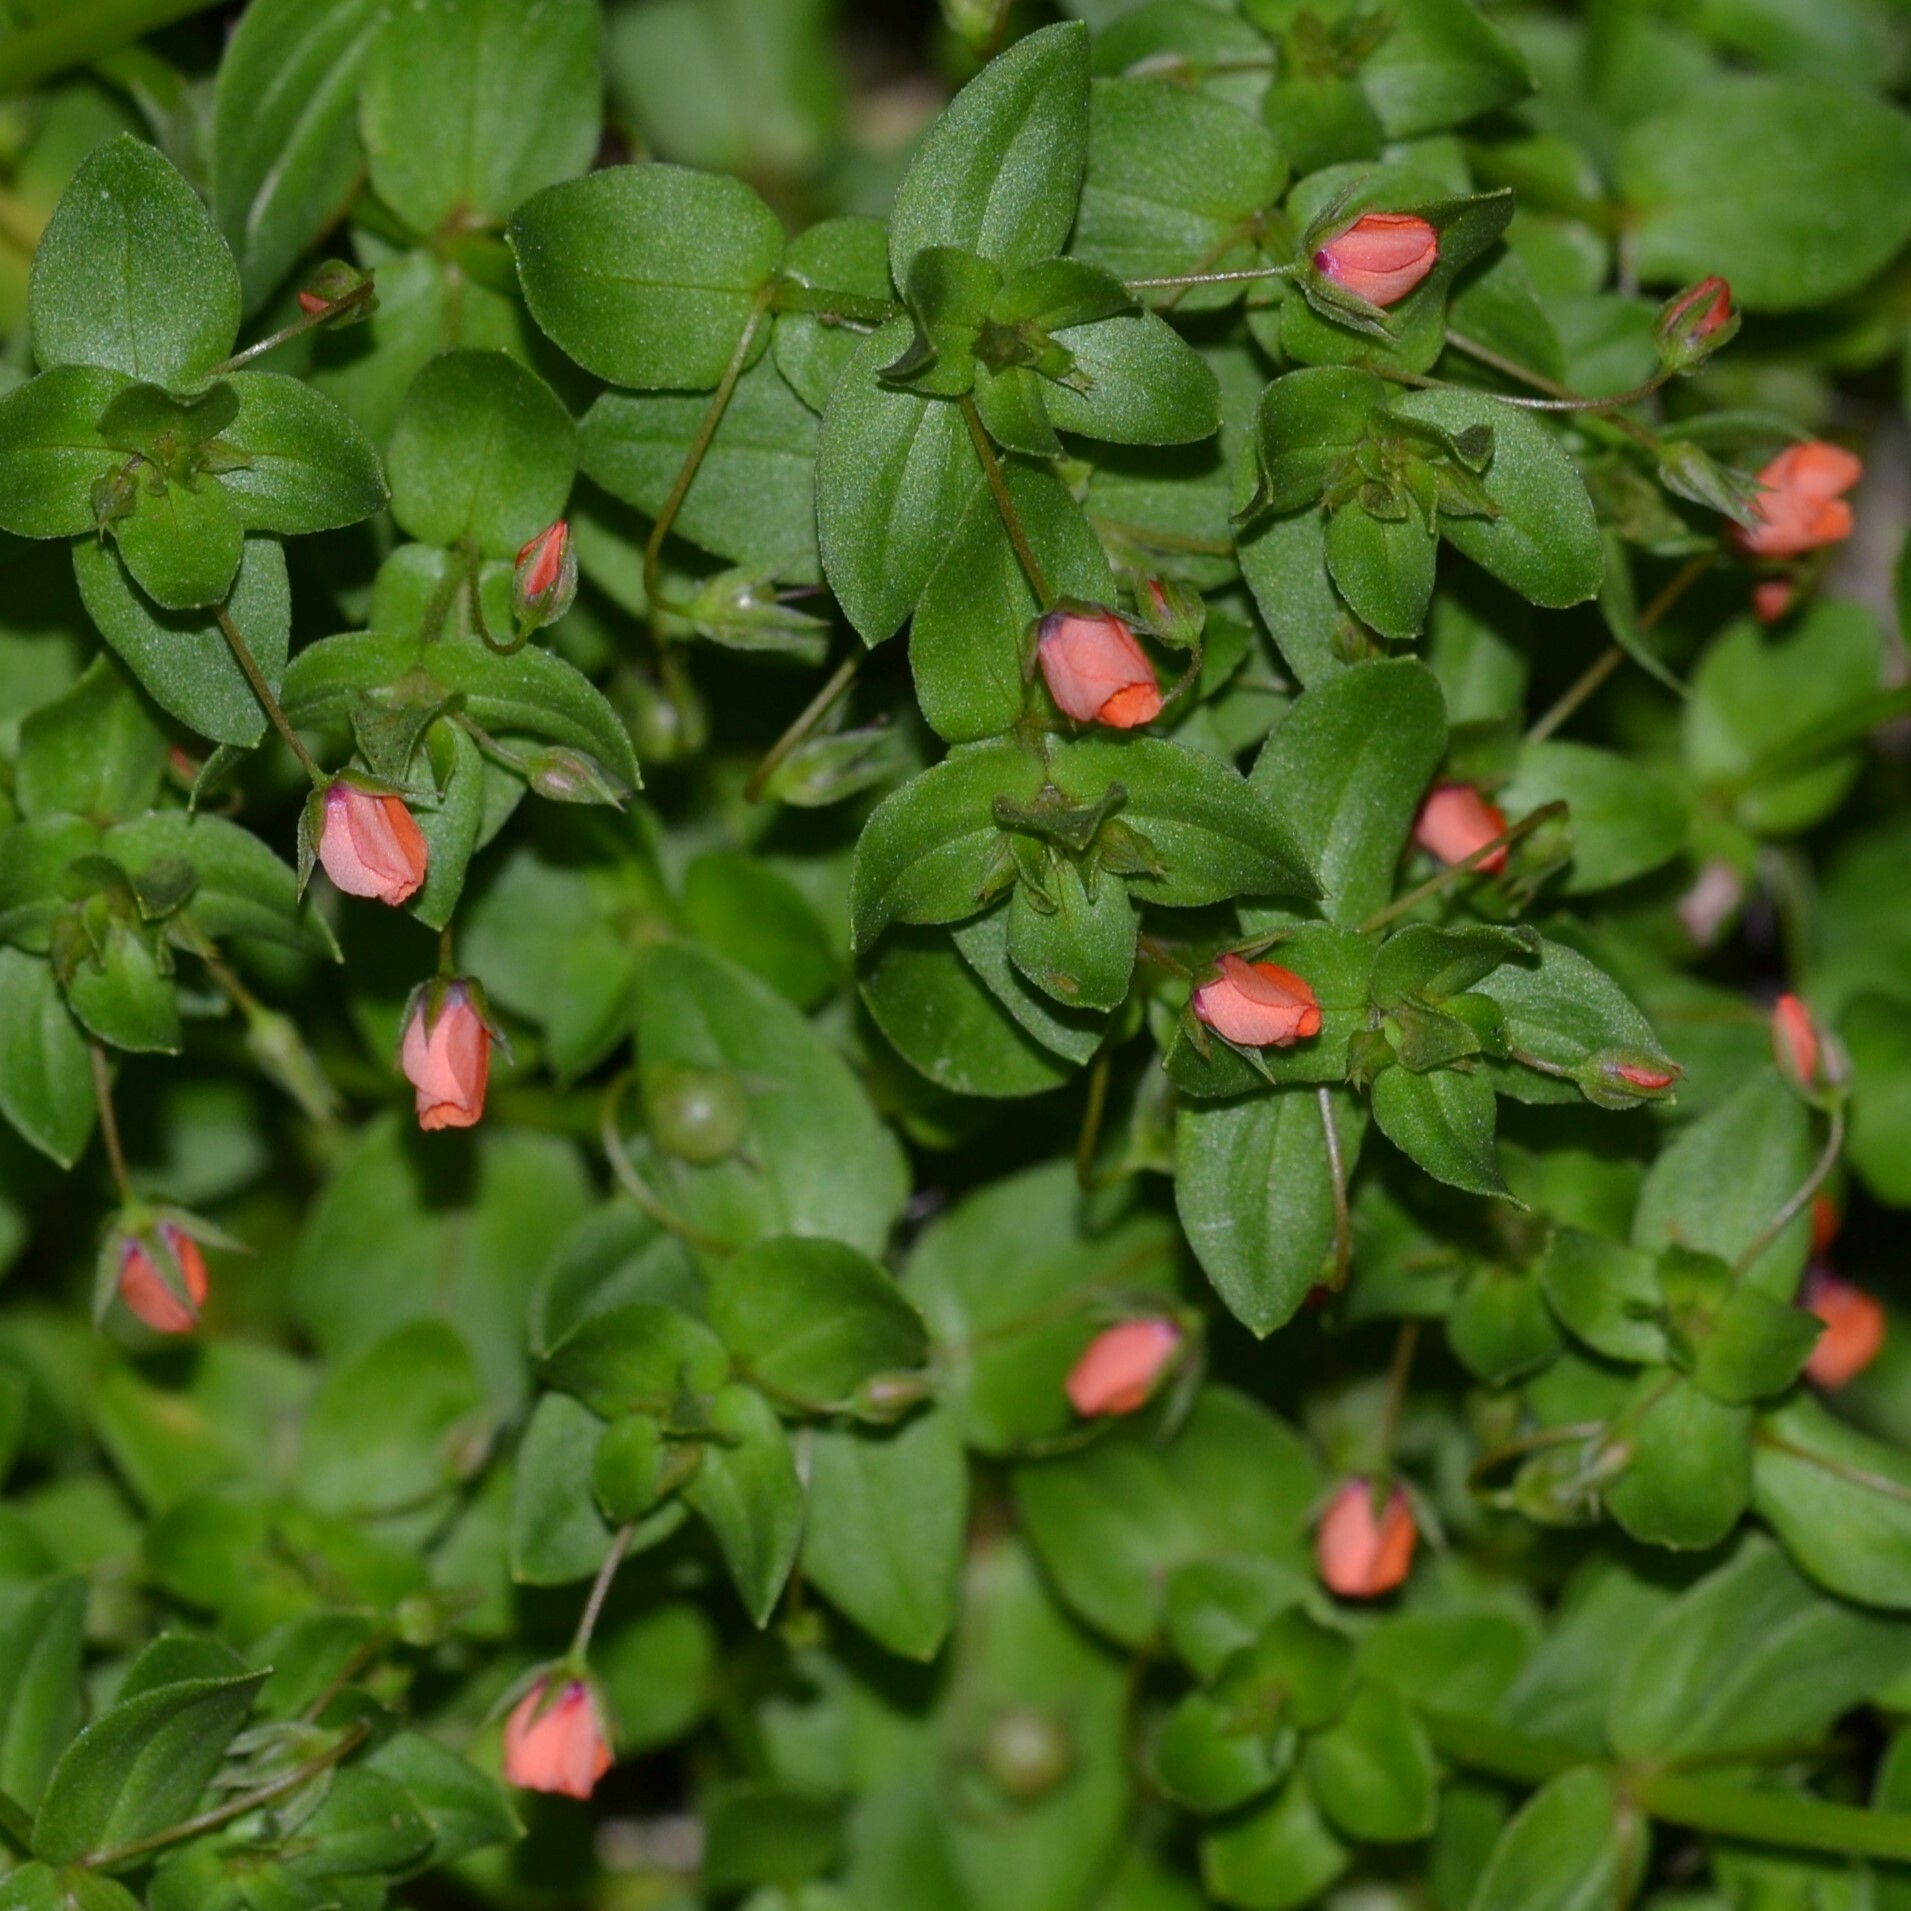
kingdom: Plantae
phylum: Tracheophyta
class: Magnoliopsida
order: Ericales
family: Primulaceae
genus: Lysimachia
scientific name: Lysimachia arvensis
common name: Scarlet pimpernel
